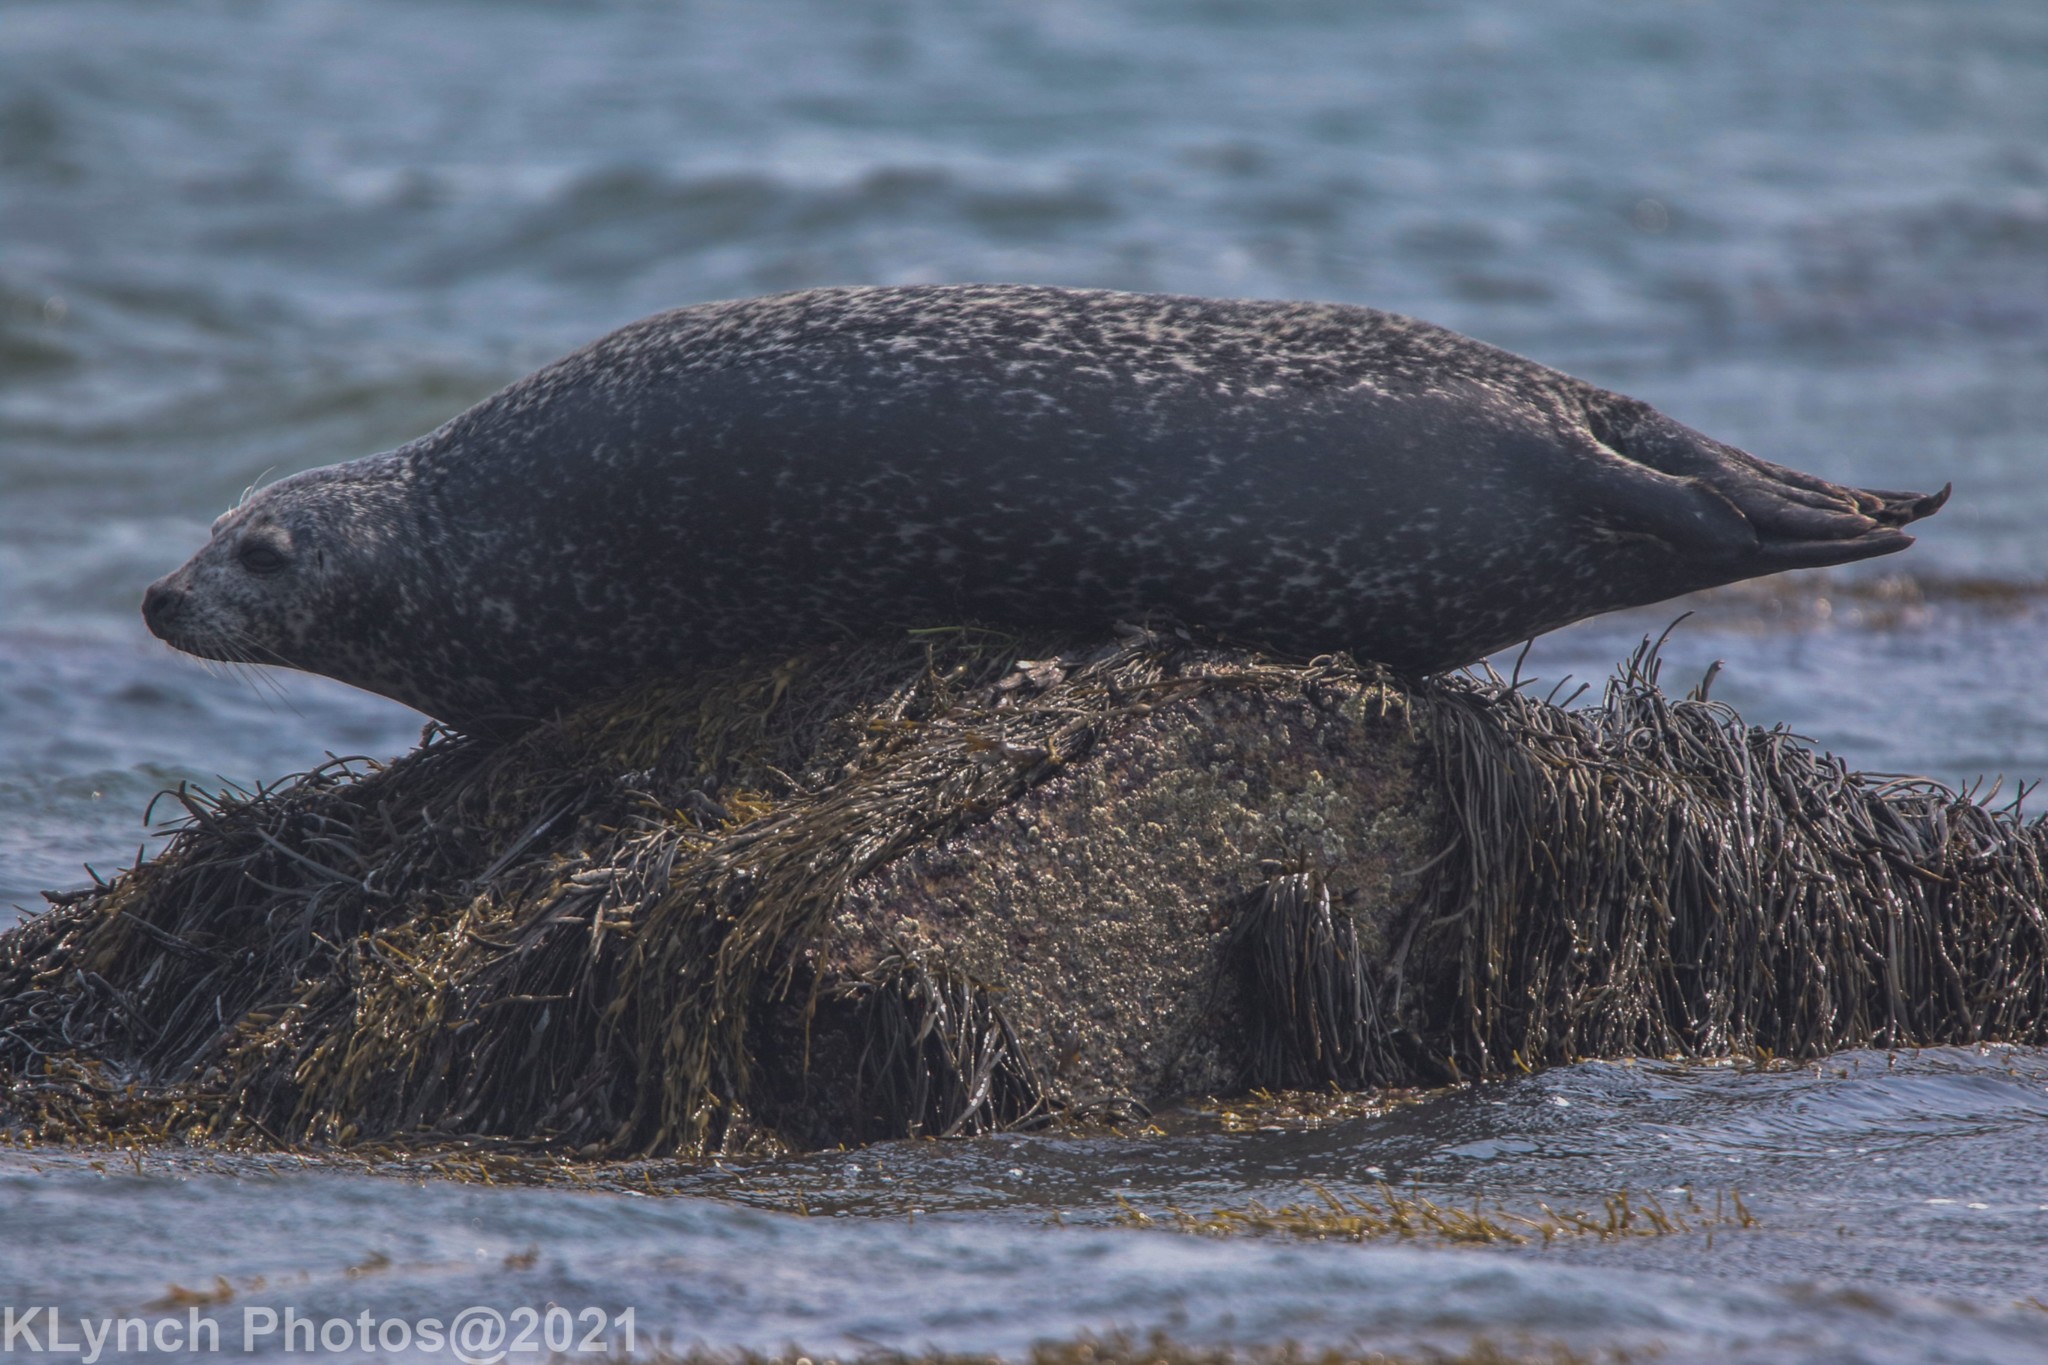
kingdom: Animalia
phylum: Chordata
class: Mammalia
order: Carnivora
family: Phocidae
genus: Phoca
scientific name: Phoca vitulina
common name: Harbor seal
